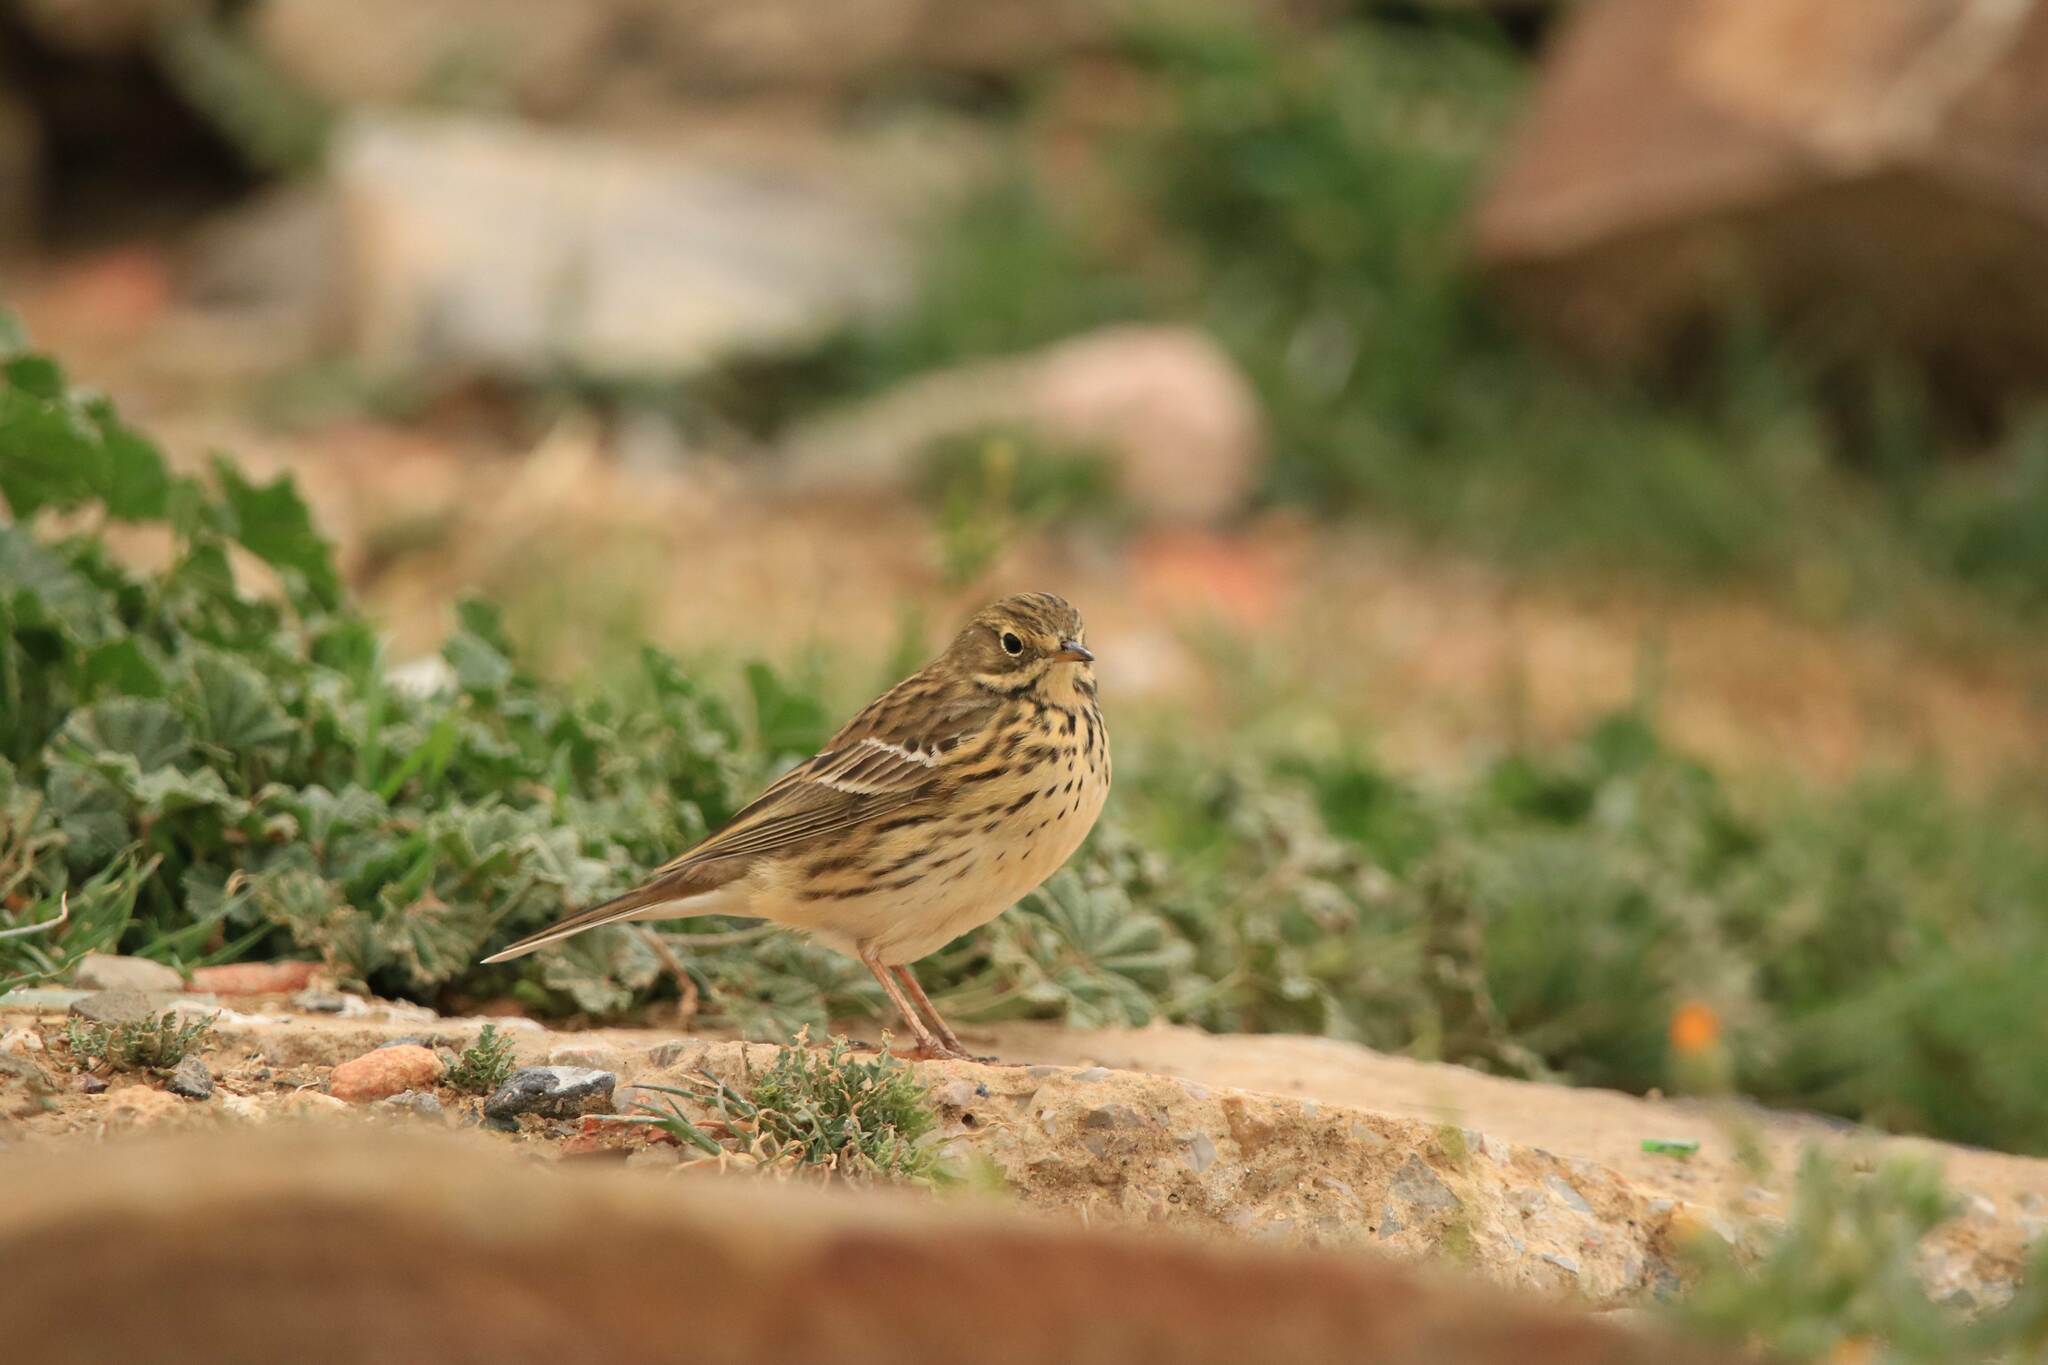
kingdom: Animalia
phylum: Chordata
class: Aves
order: Passeriformes
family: Motacillidae
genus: Anthus
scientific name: Anthus pratensis
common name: Meadow pipit
